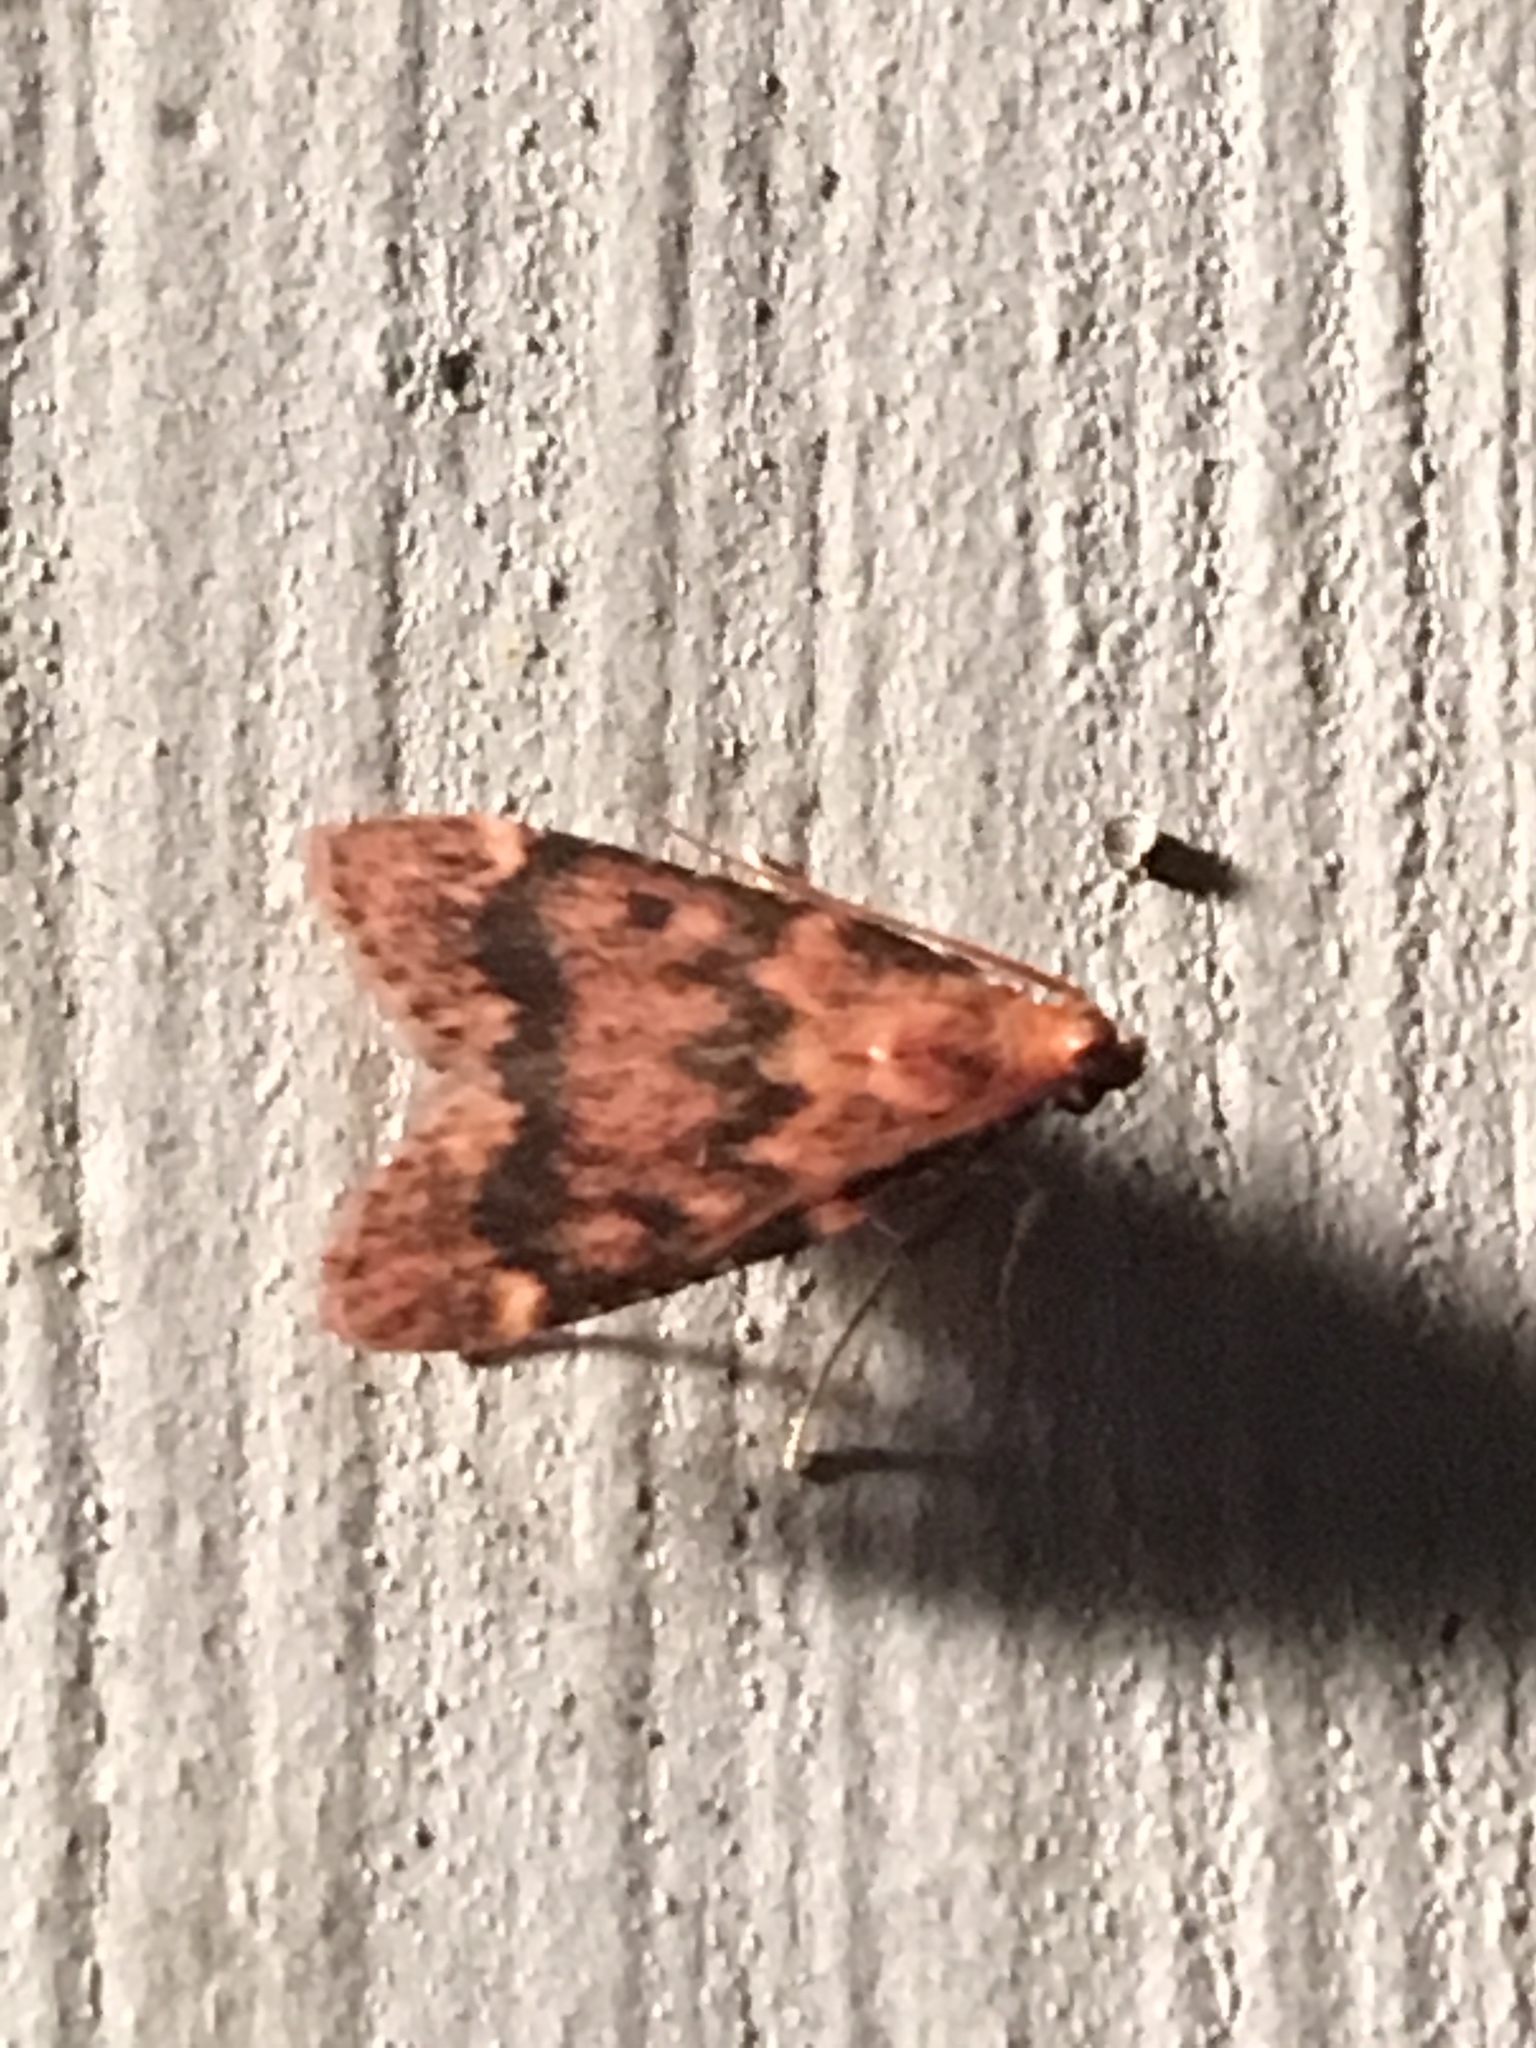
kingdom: Animalia
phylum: Arthropoda
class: Insecta
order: Lepidoptera
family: Pyralidae
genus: Aglossa
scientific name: Aglossa disciferalis
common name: Pink-masked pyralid moth
